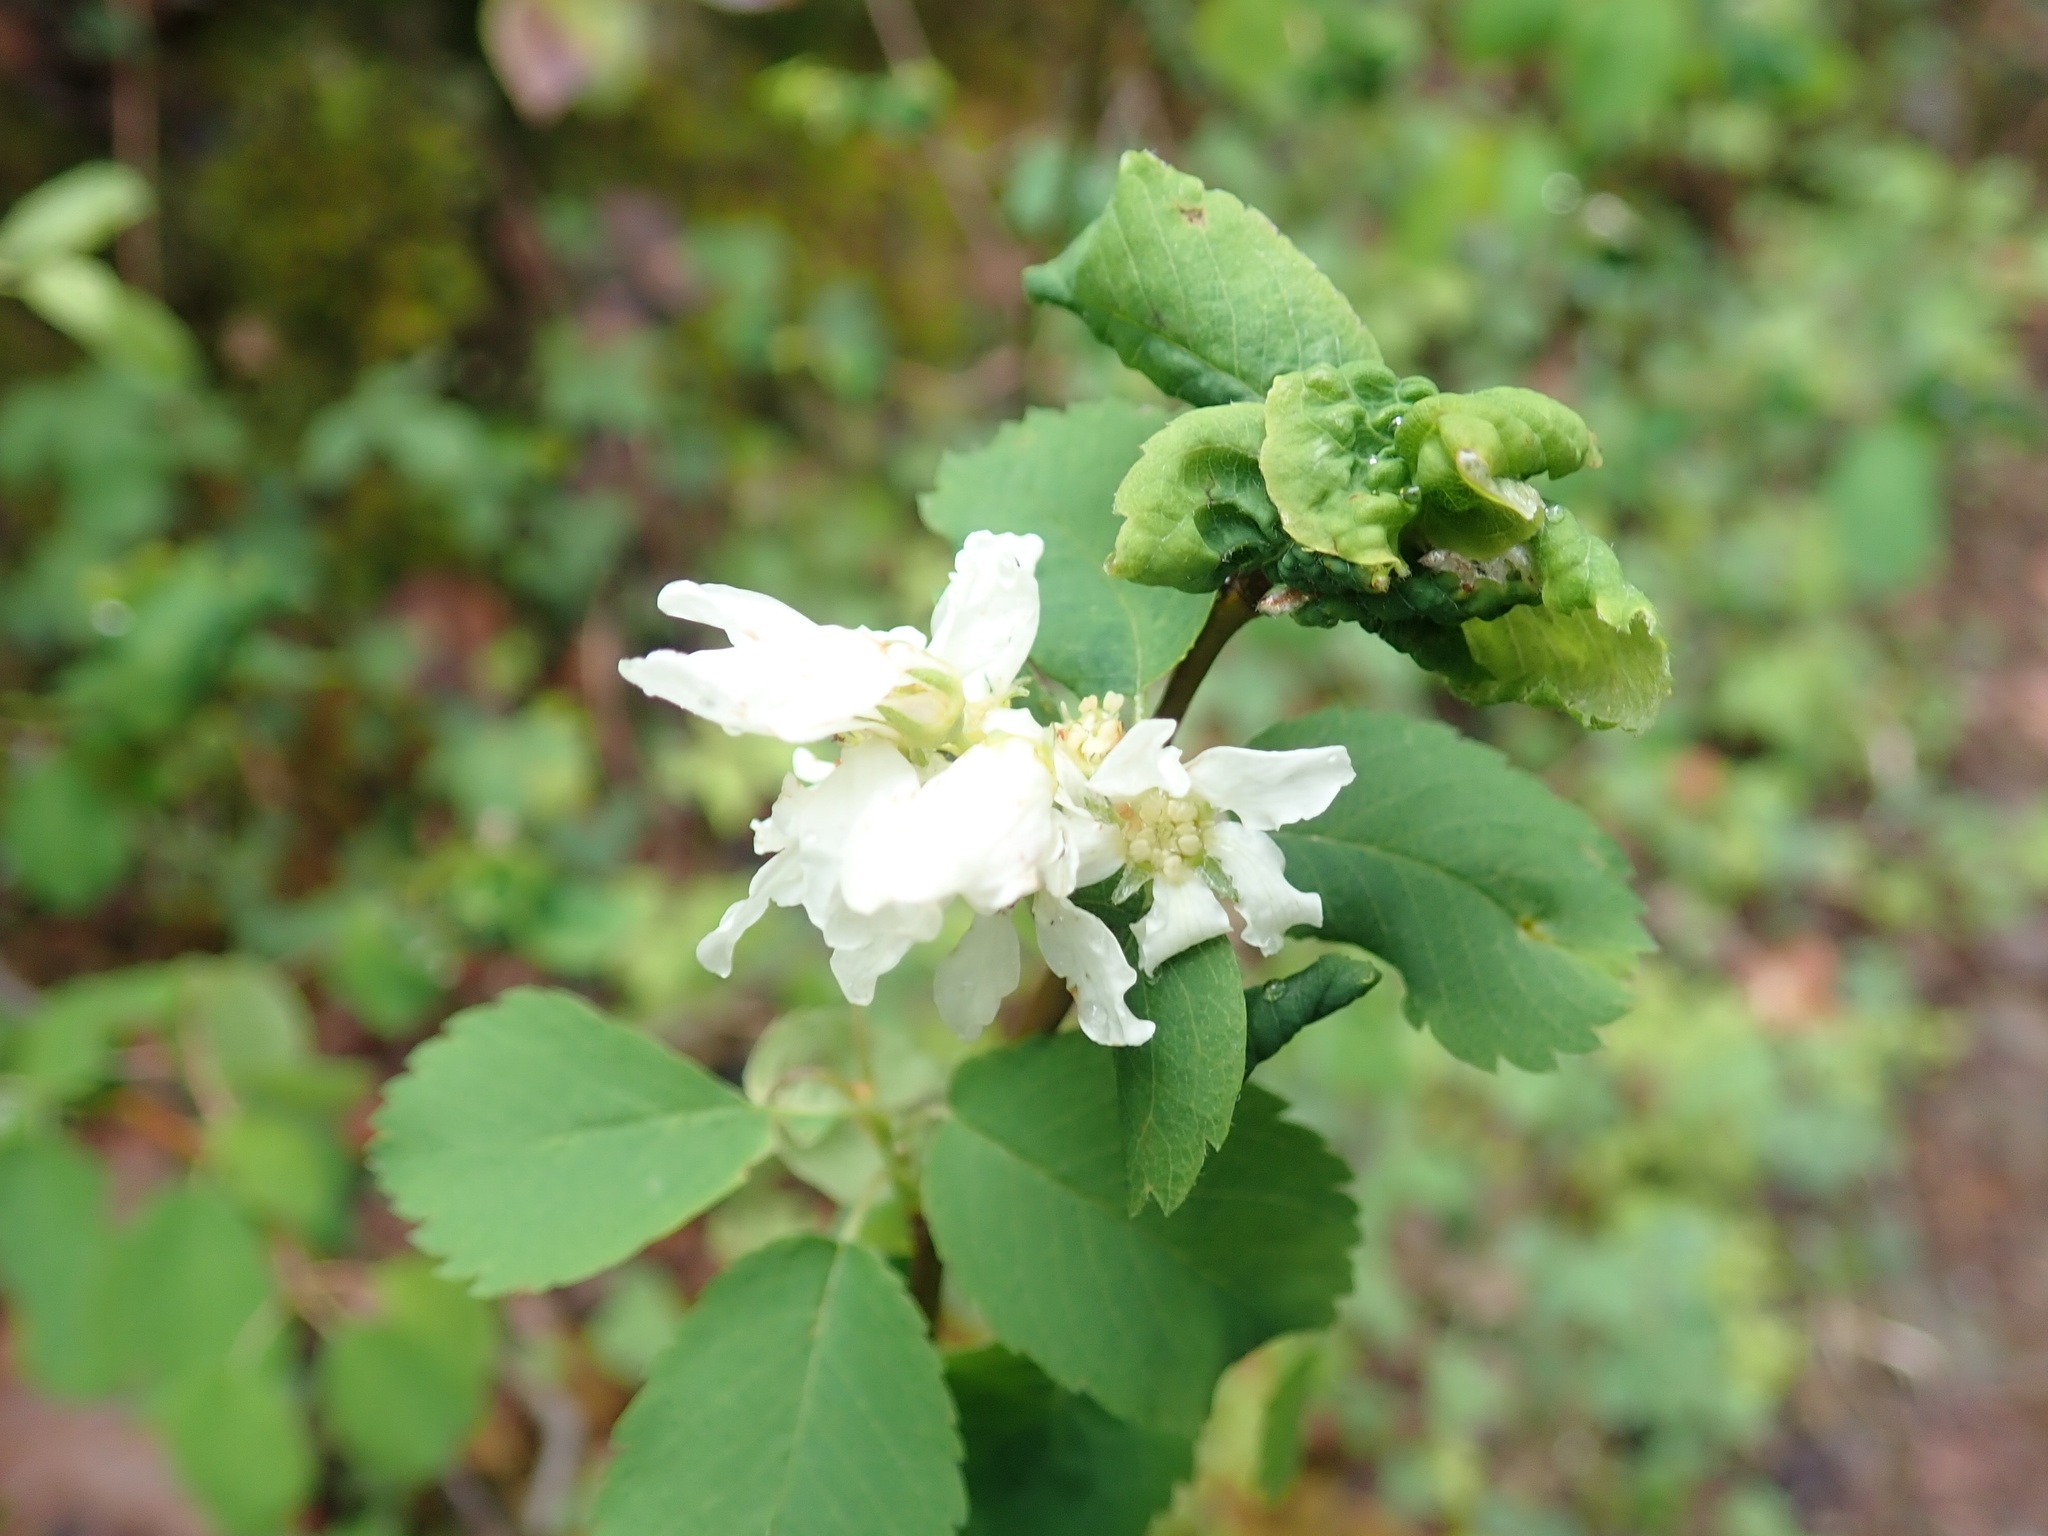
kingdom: Plantae
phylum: Tracheophyta
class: Magnoliopsida
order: Rosales
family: Rosaceae
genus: Amelanchier
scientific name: Amelanchier alnifolia
